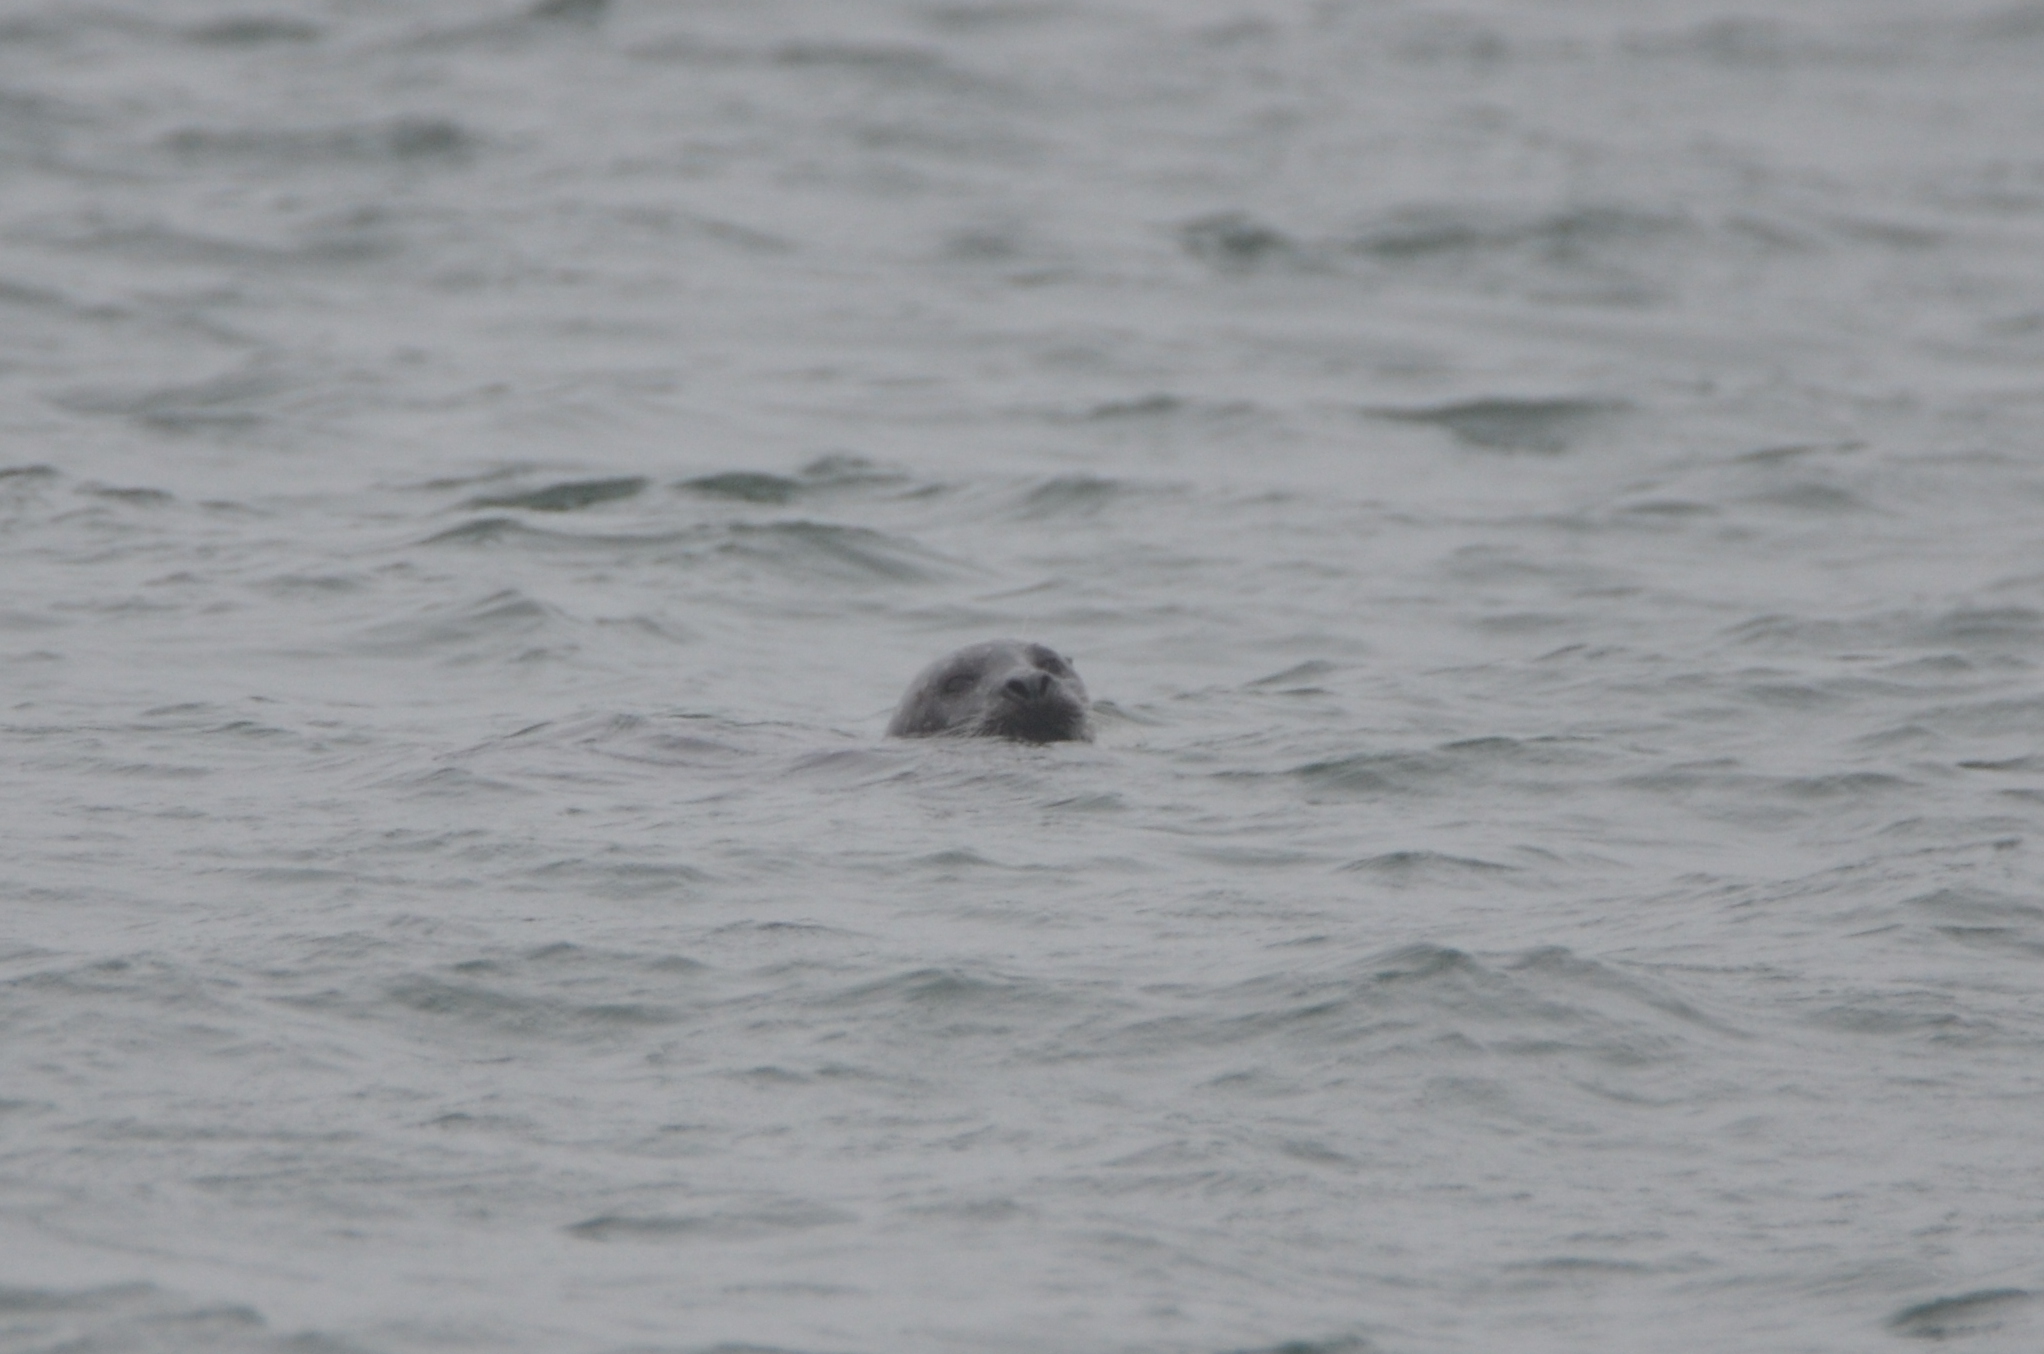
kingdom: Animalia
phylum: Chordata
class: Mammalia
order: Carnivora
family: Phocidae
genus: Phoca
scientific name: Phoca vitulina
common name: Harbor seal
